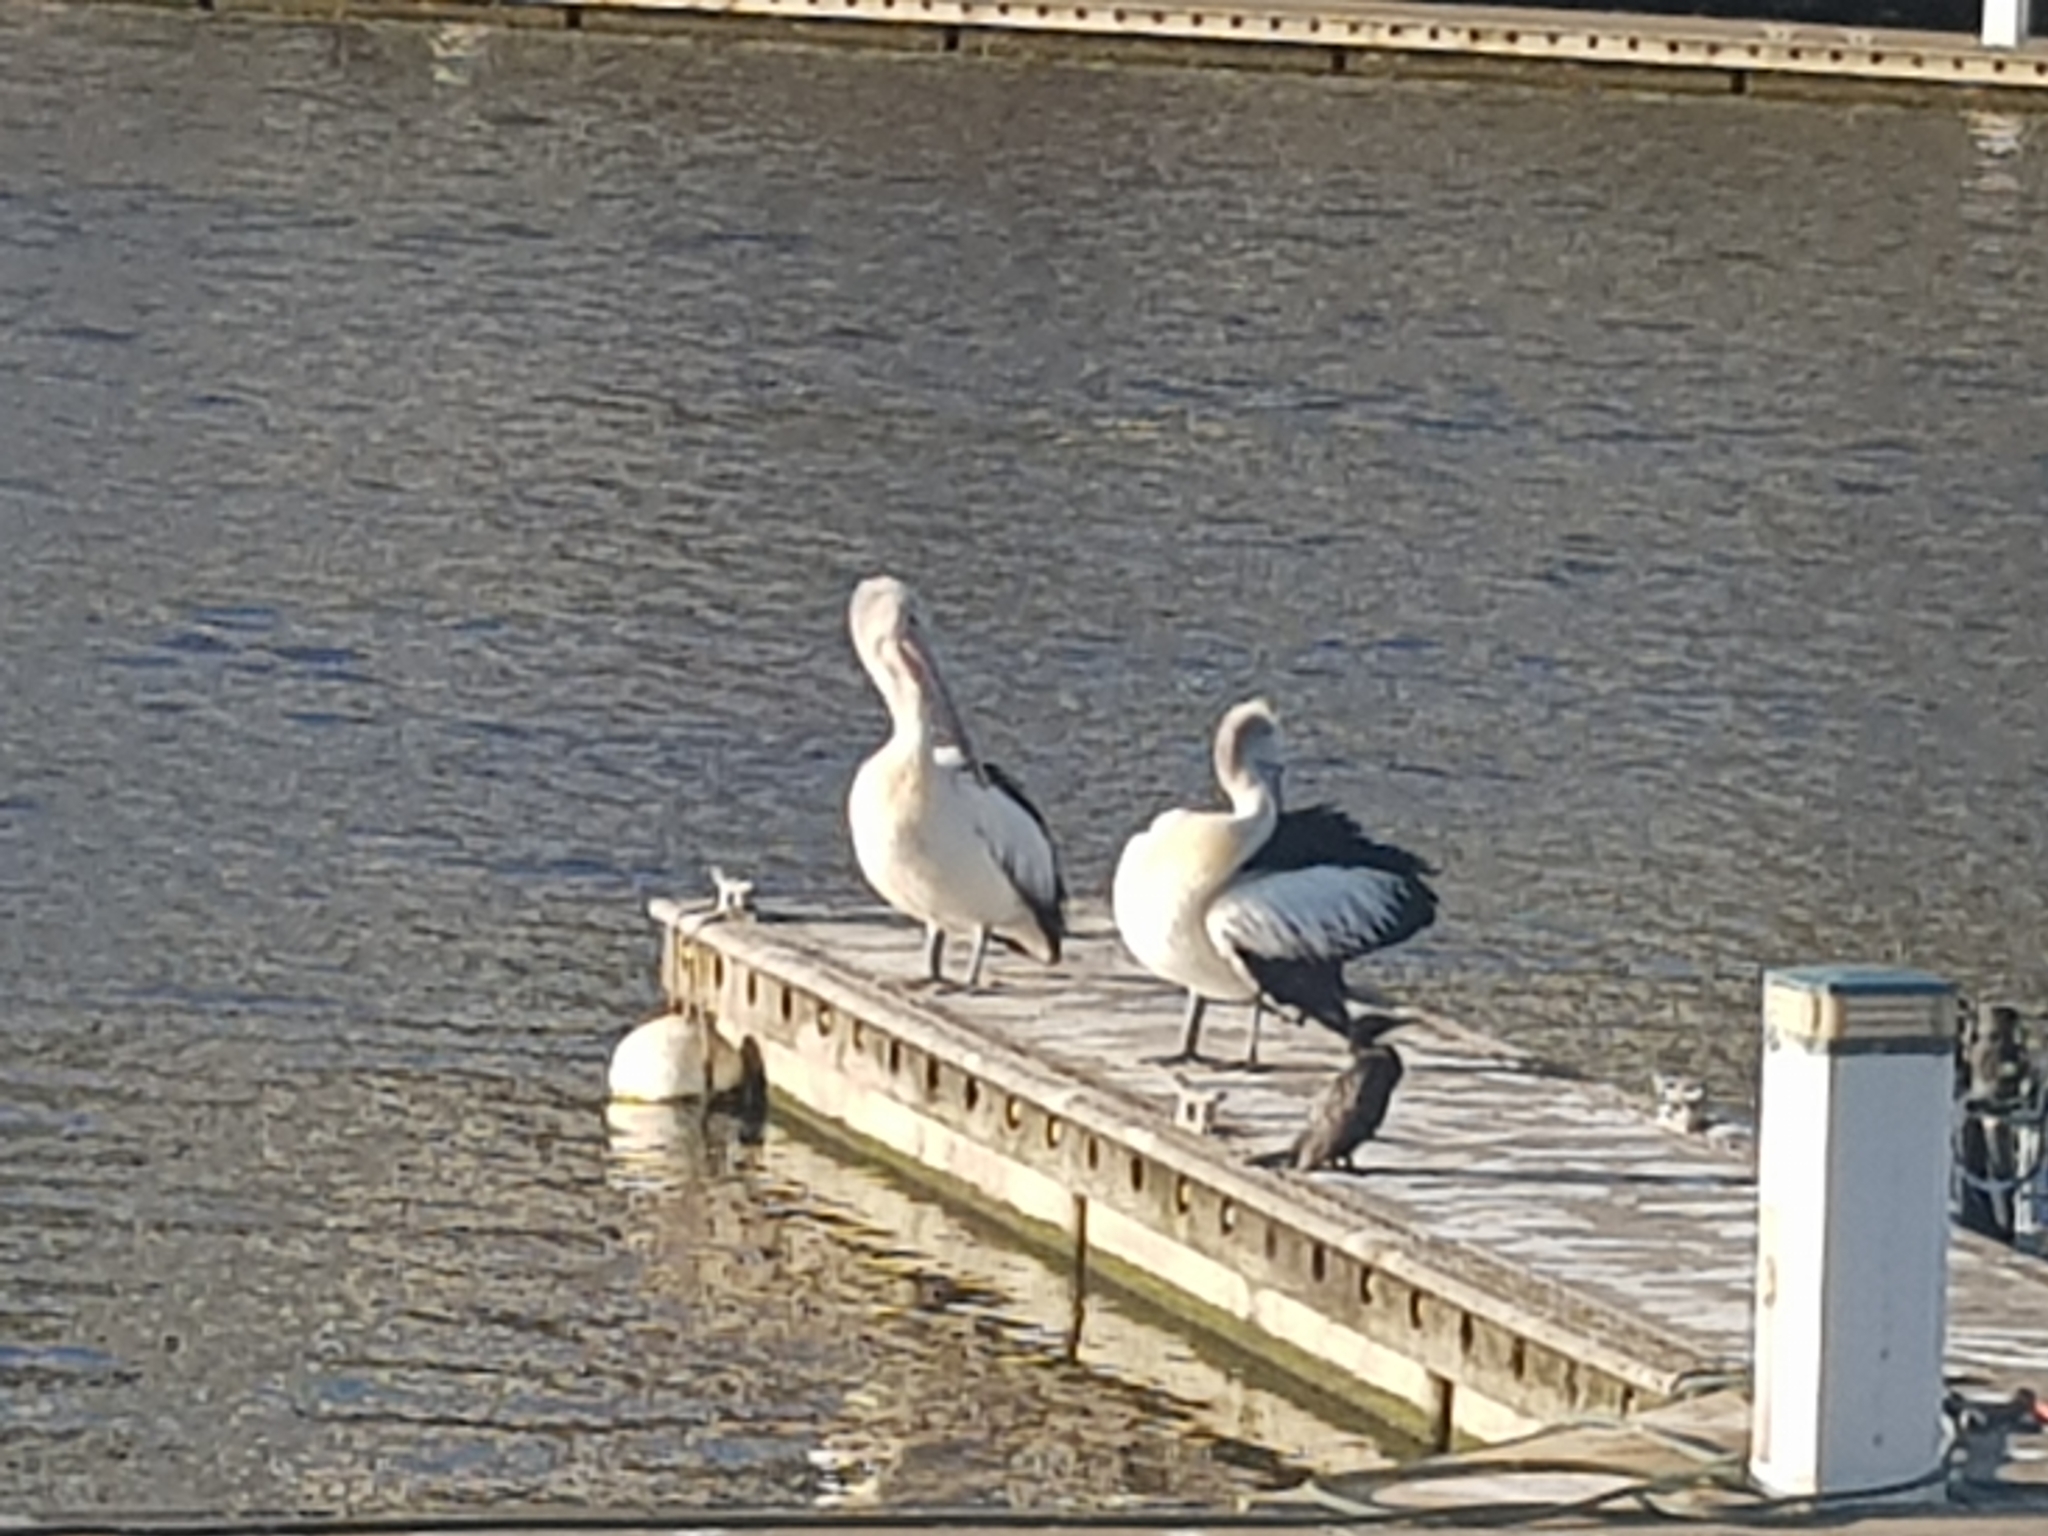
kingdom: Animalia
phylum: Chordata
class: Aves
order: Pelecaniformes
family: Pelecanidae
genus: Pelecanus
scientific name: Pelecanus conspicillatus
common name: Australian pelican
